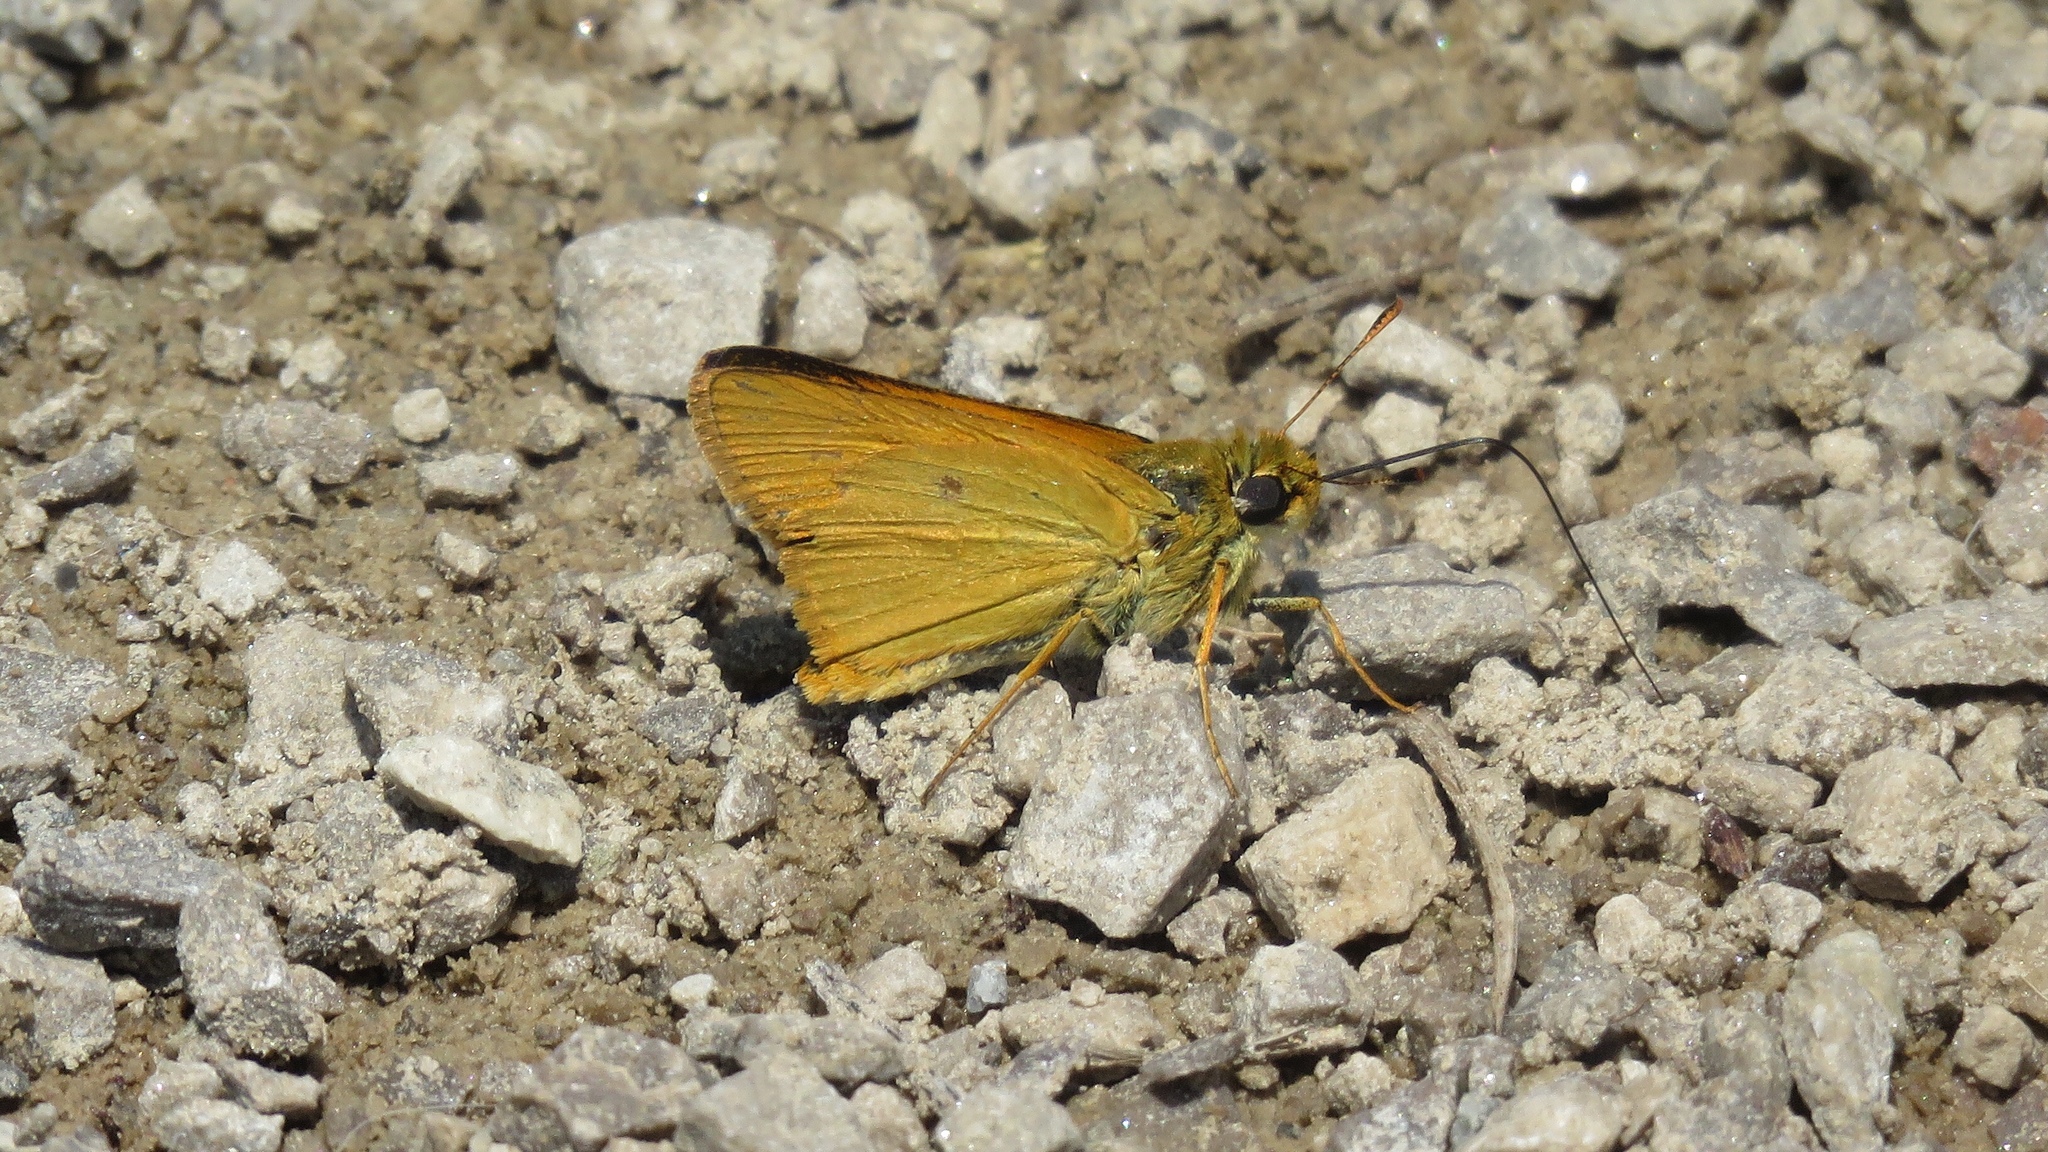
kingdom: Animalia
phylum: Arthropoda
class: Insecta
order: Lepidoptera
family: Hesperiidae
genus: Atrytone
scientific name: Atrytone delaware
